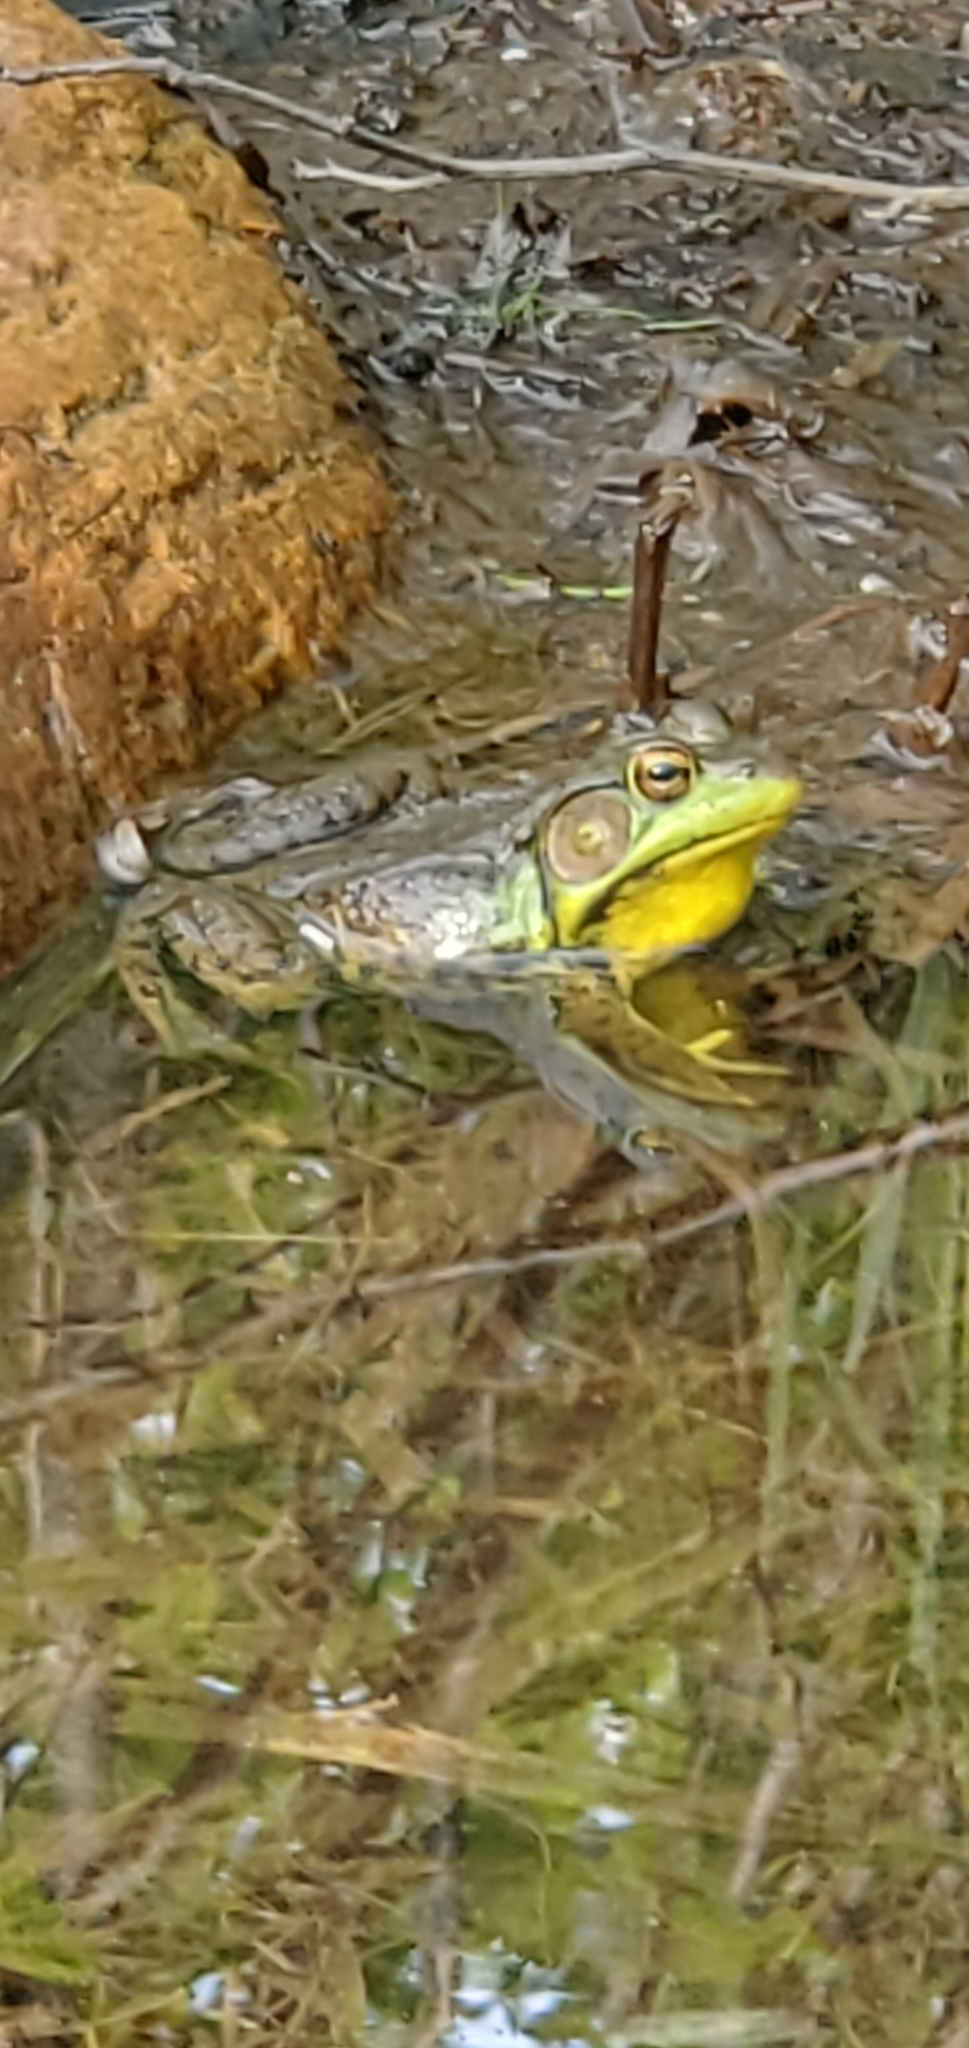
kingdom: Animalia
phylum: Chordata
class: Amphibia
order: Anura
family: Ranidae
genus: Lithobates
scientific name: Lithobates clamitans
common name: Green frog
